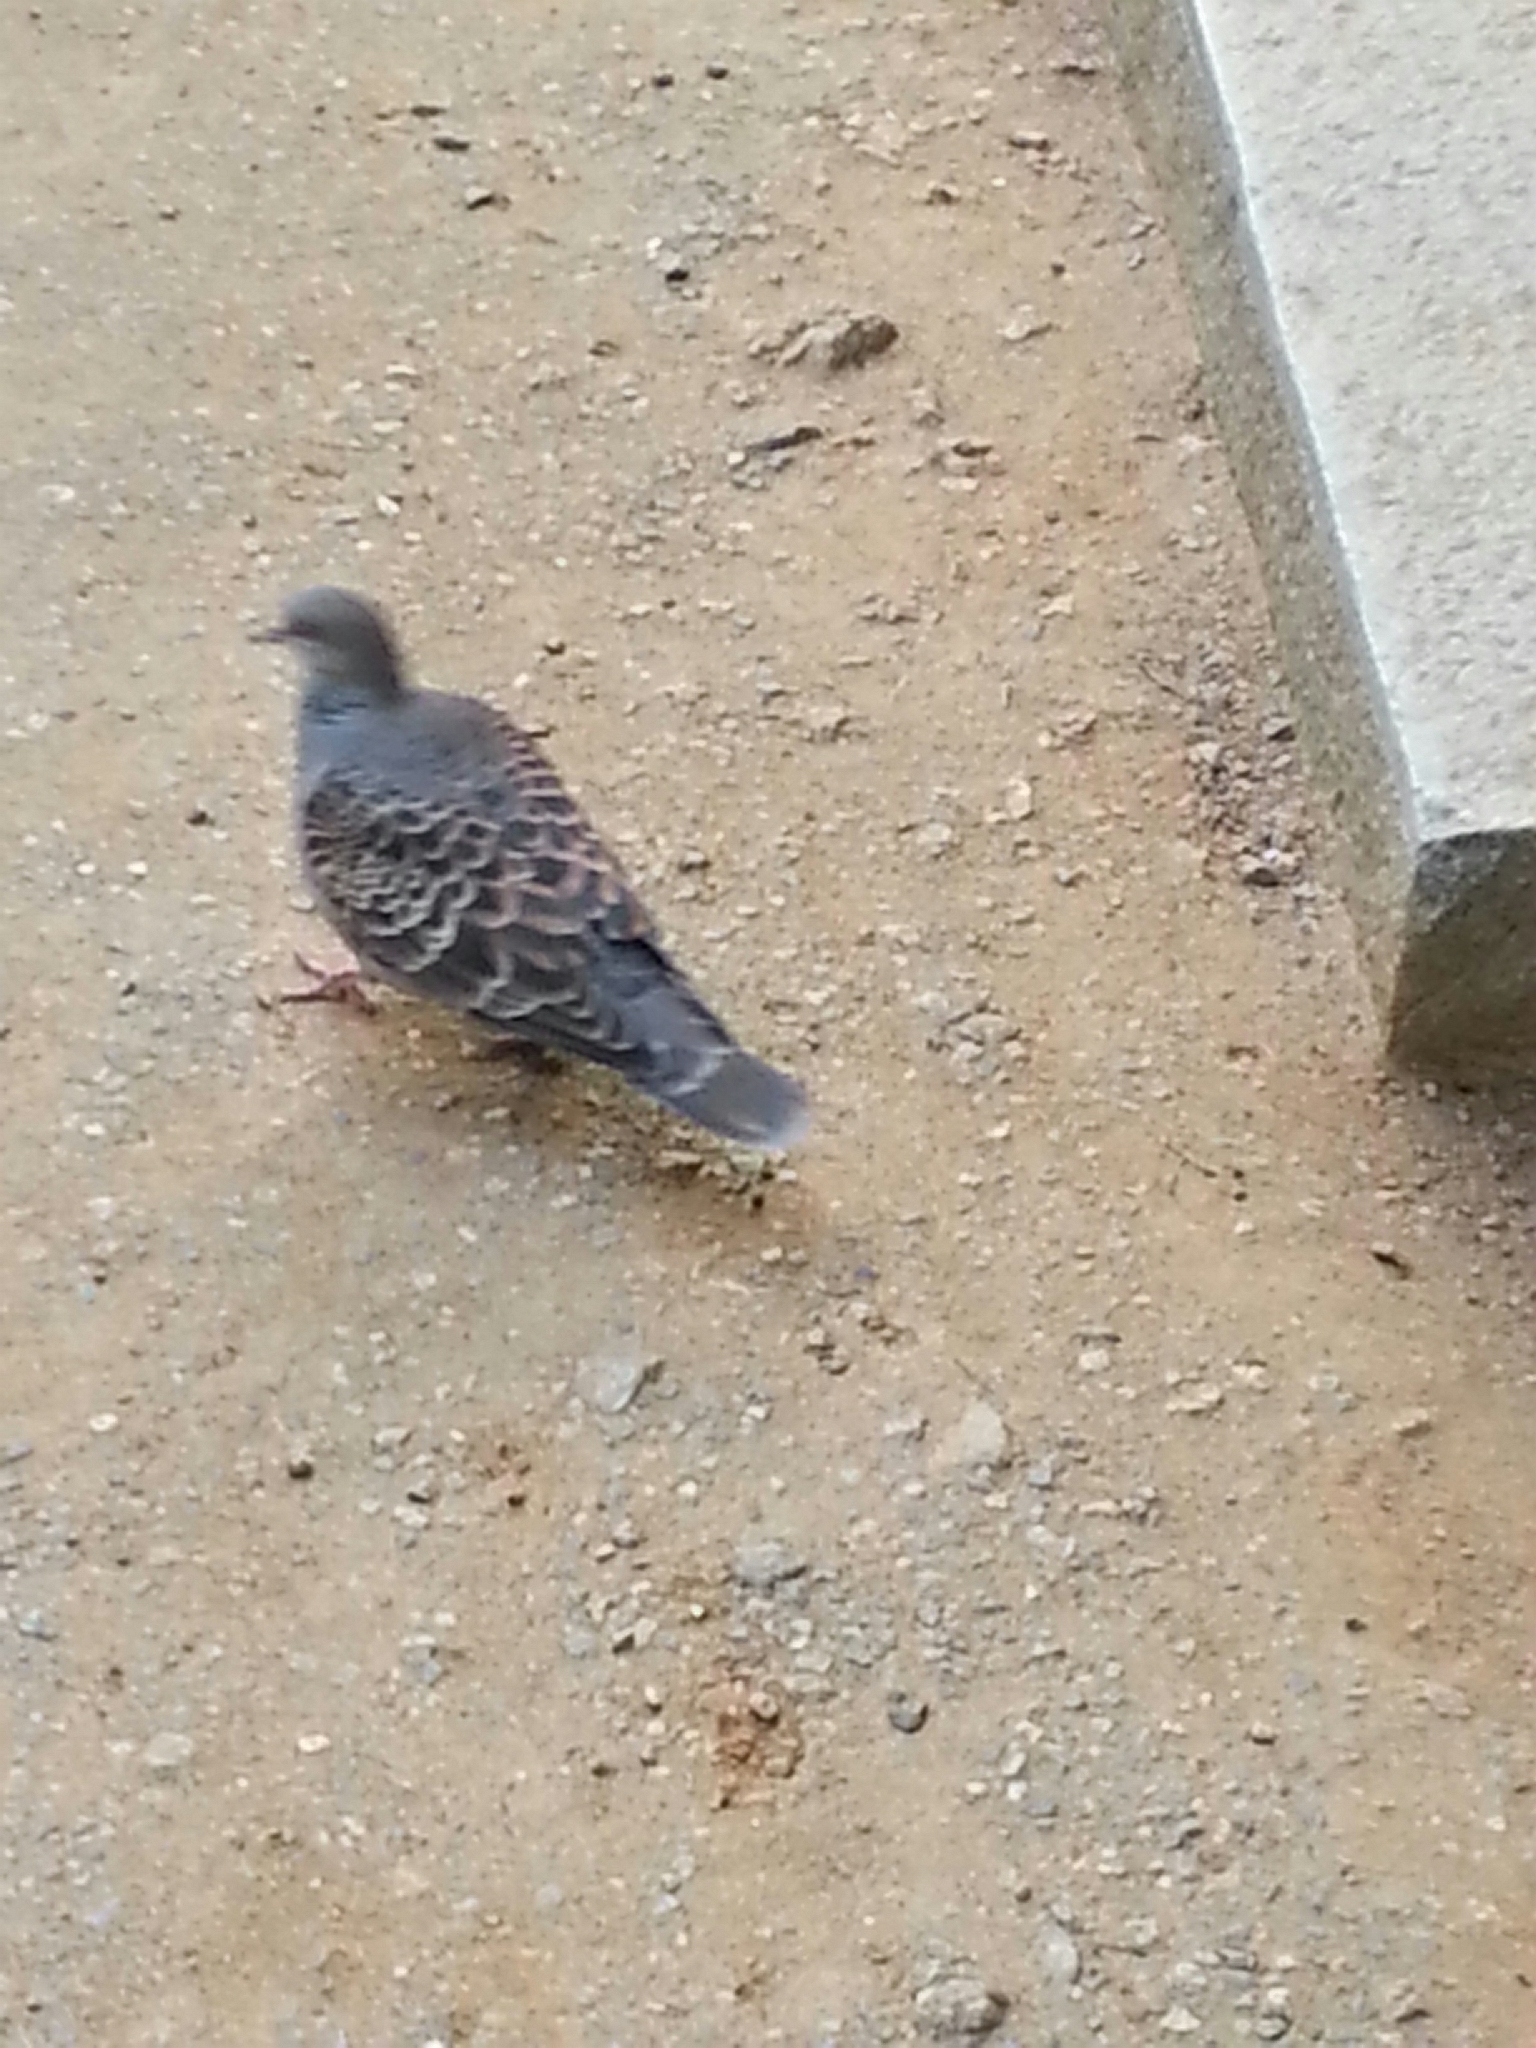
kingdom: Animalia
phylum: Chordata
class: Aves
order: Columbiformes
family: Columbidae
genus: Streptopelia
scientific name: Streptopelia orientalis
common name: Oriental turtle dove
